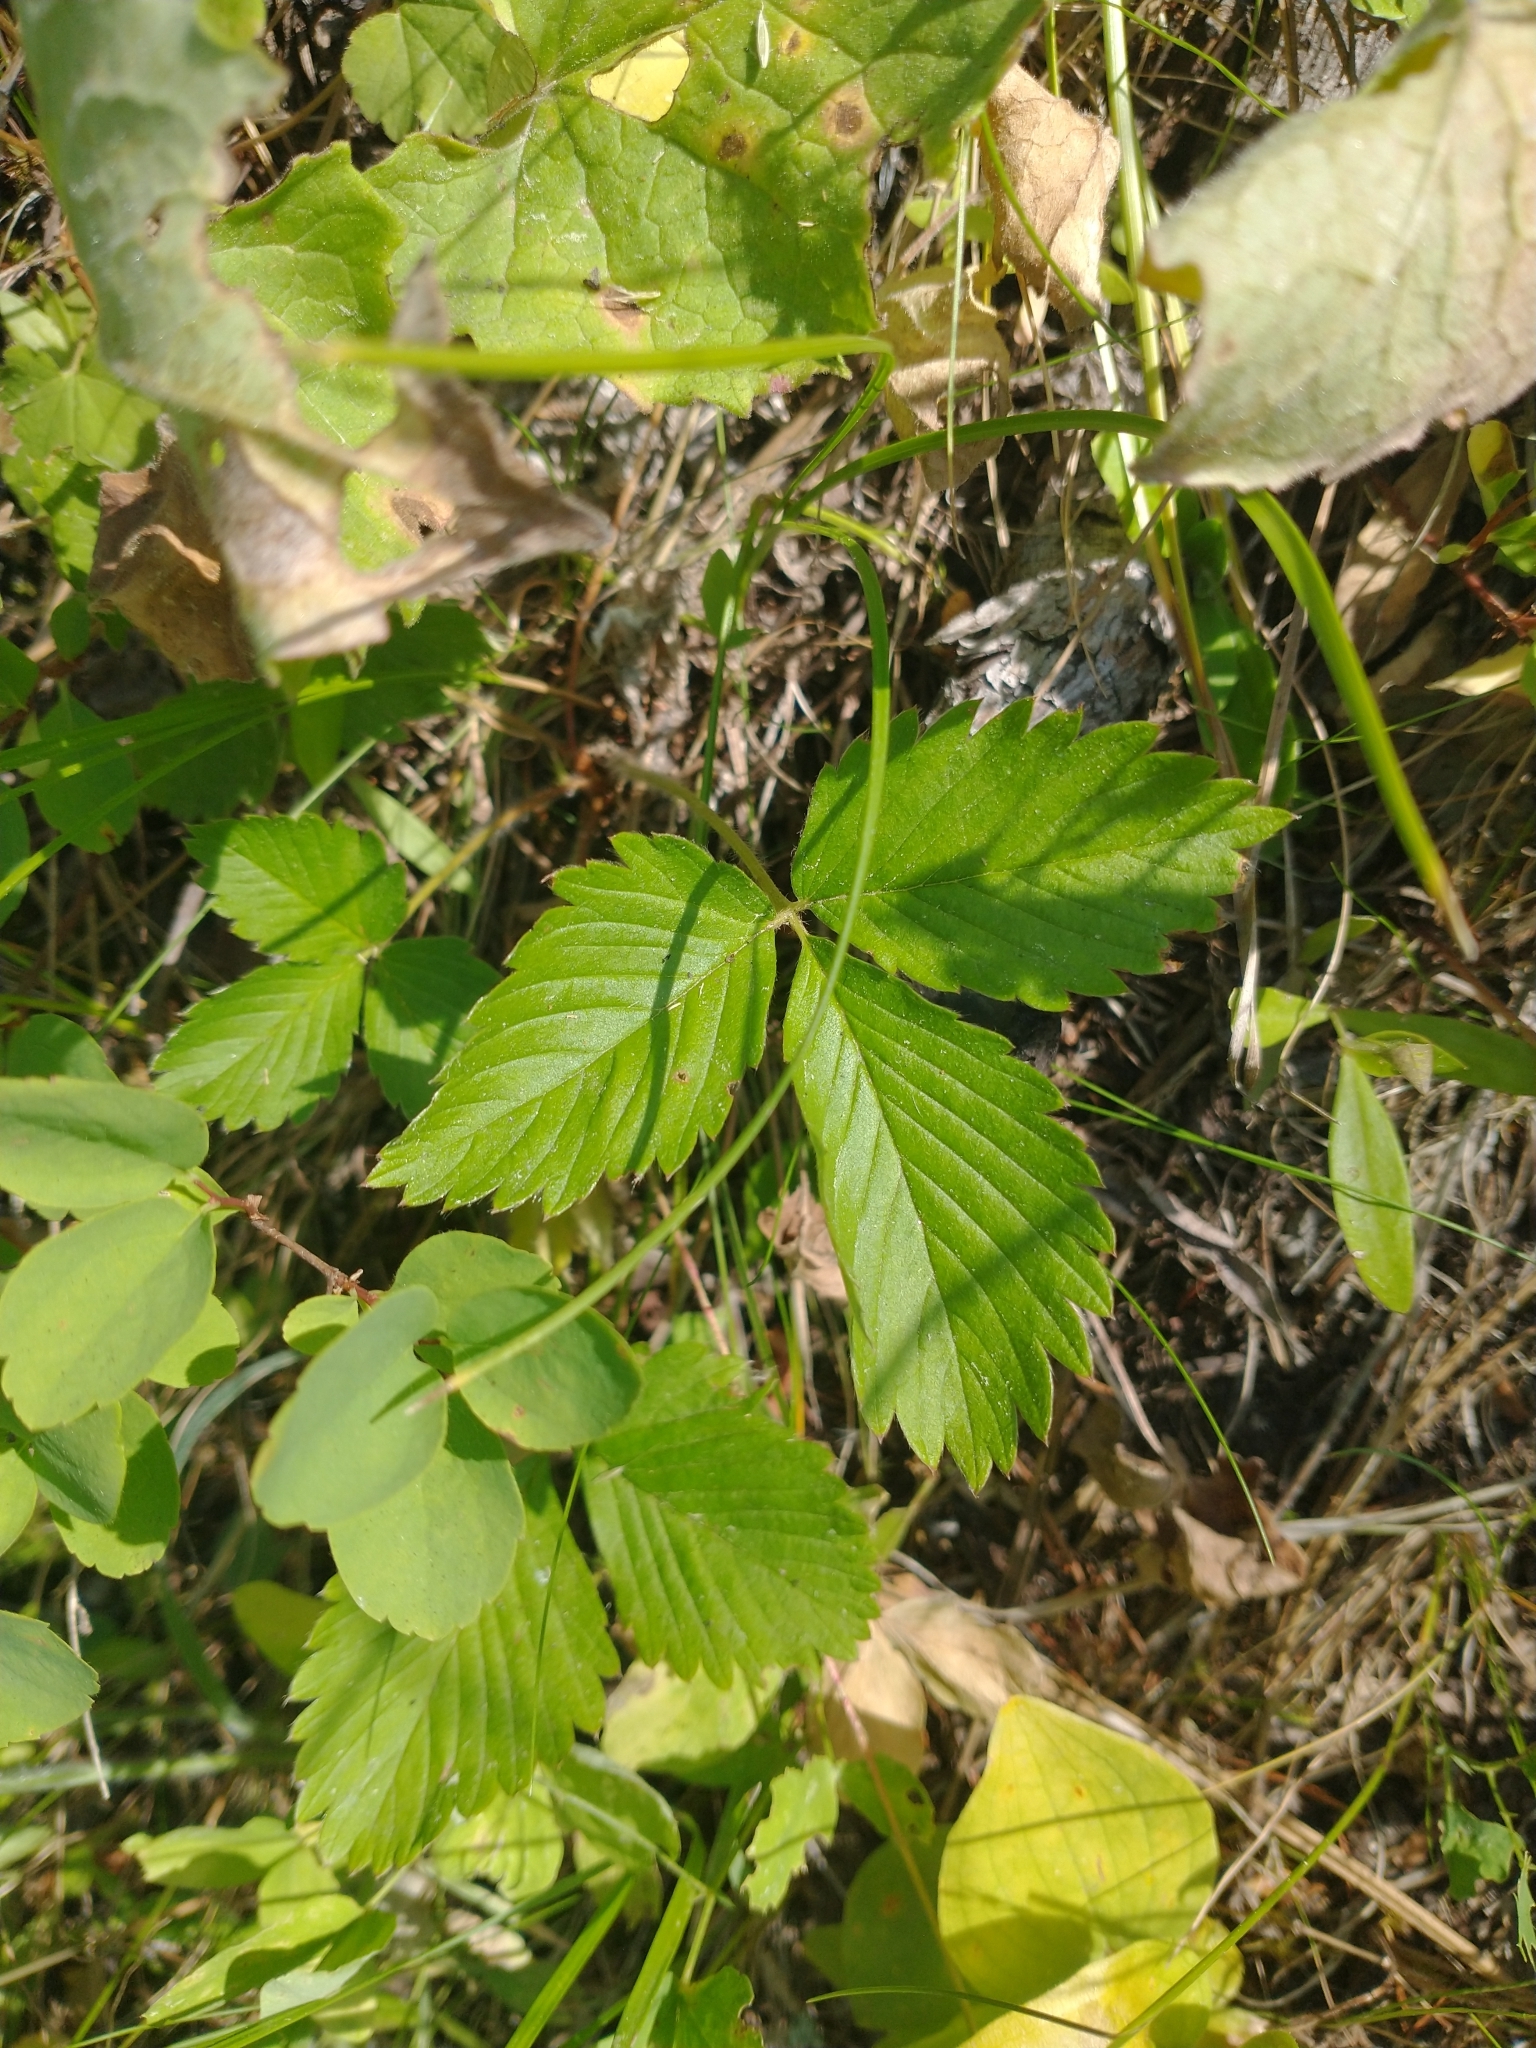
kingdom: Plantae
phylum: Tracheophyta
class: Magnoliopsida
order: Rosales
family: Rosaceae
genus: Fragaria
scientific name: Fragaria vesca
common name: Wild strawberry
